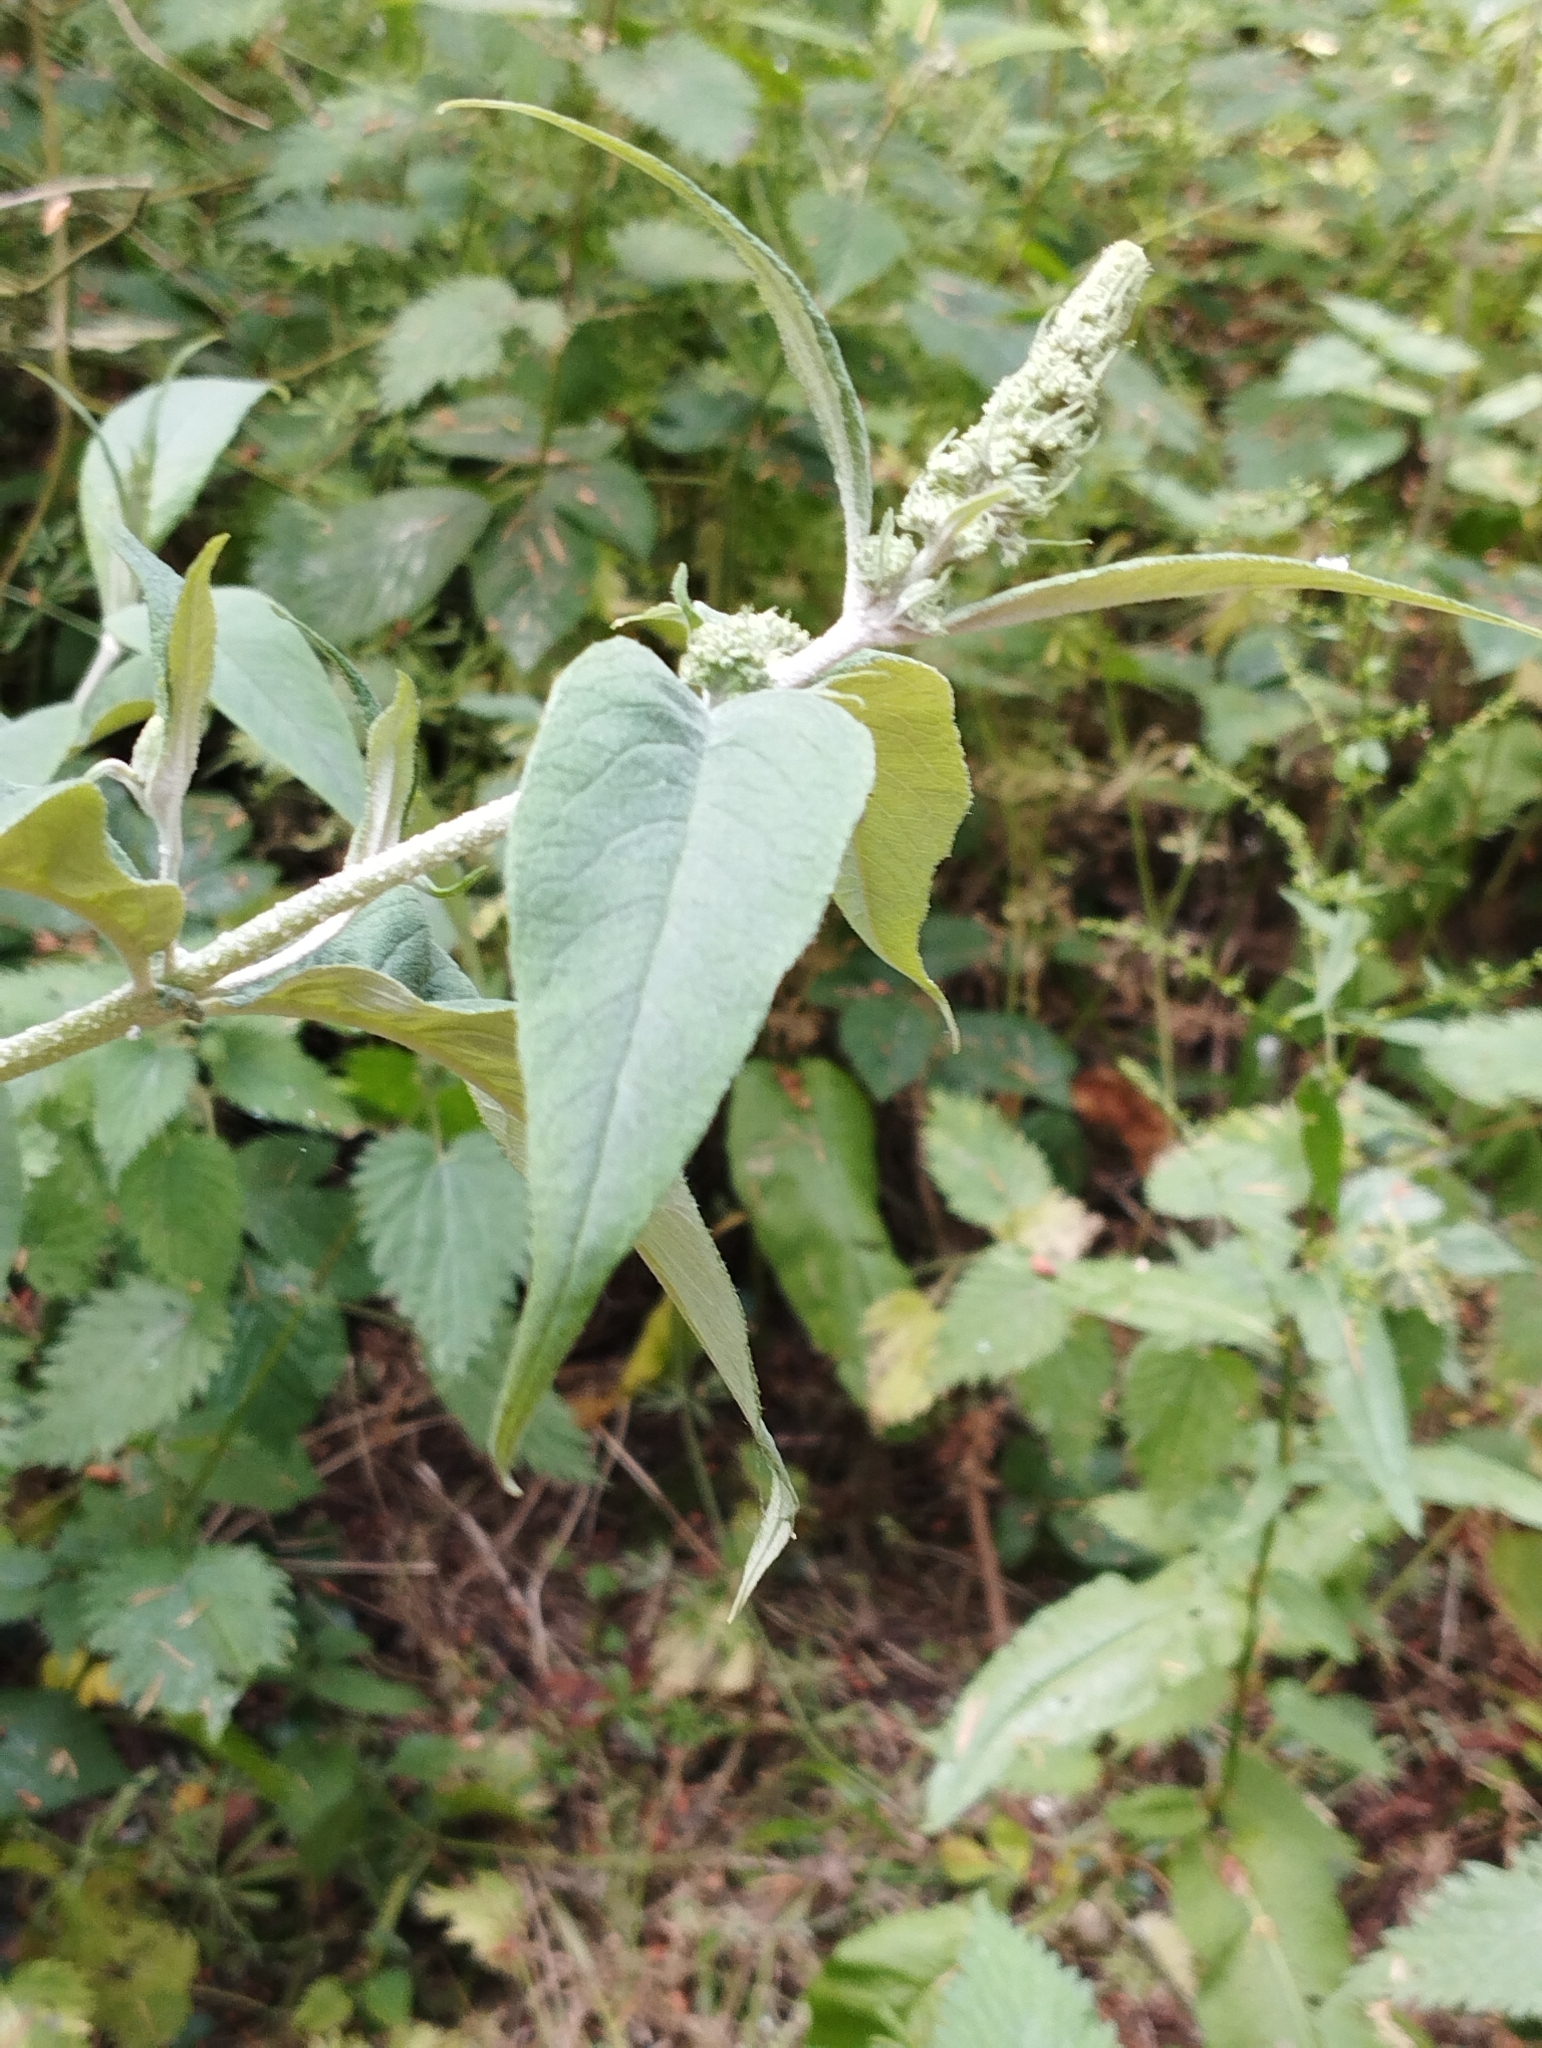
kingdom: Plantae
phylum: Tracheophyta
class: Magnoliopsida
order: Lamiales
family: Scrophulariaceae
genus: Buddleja
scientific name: Buddleja davidii
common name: Butterfly-bush
